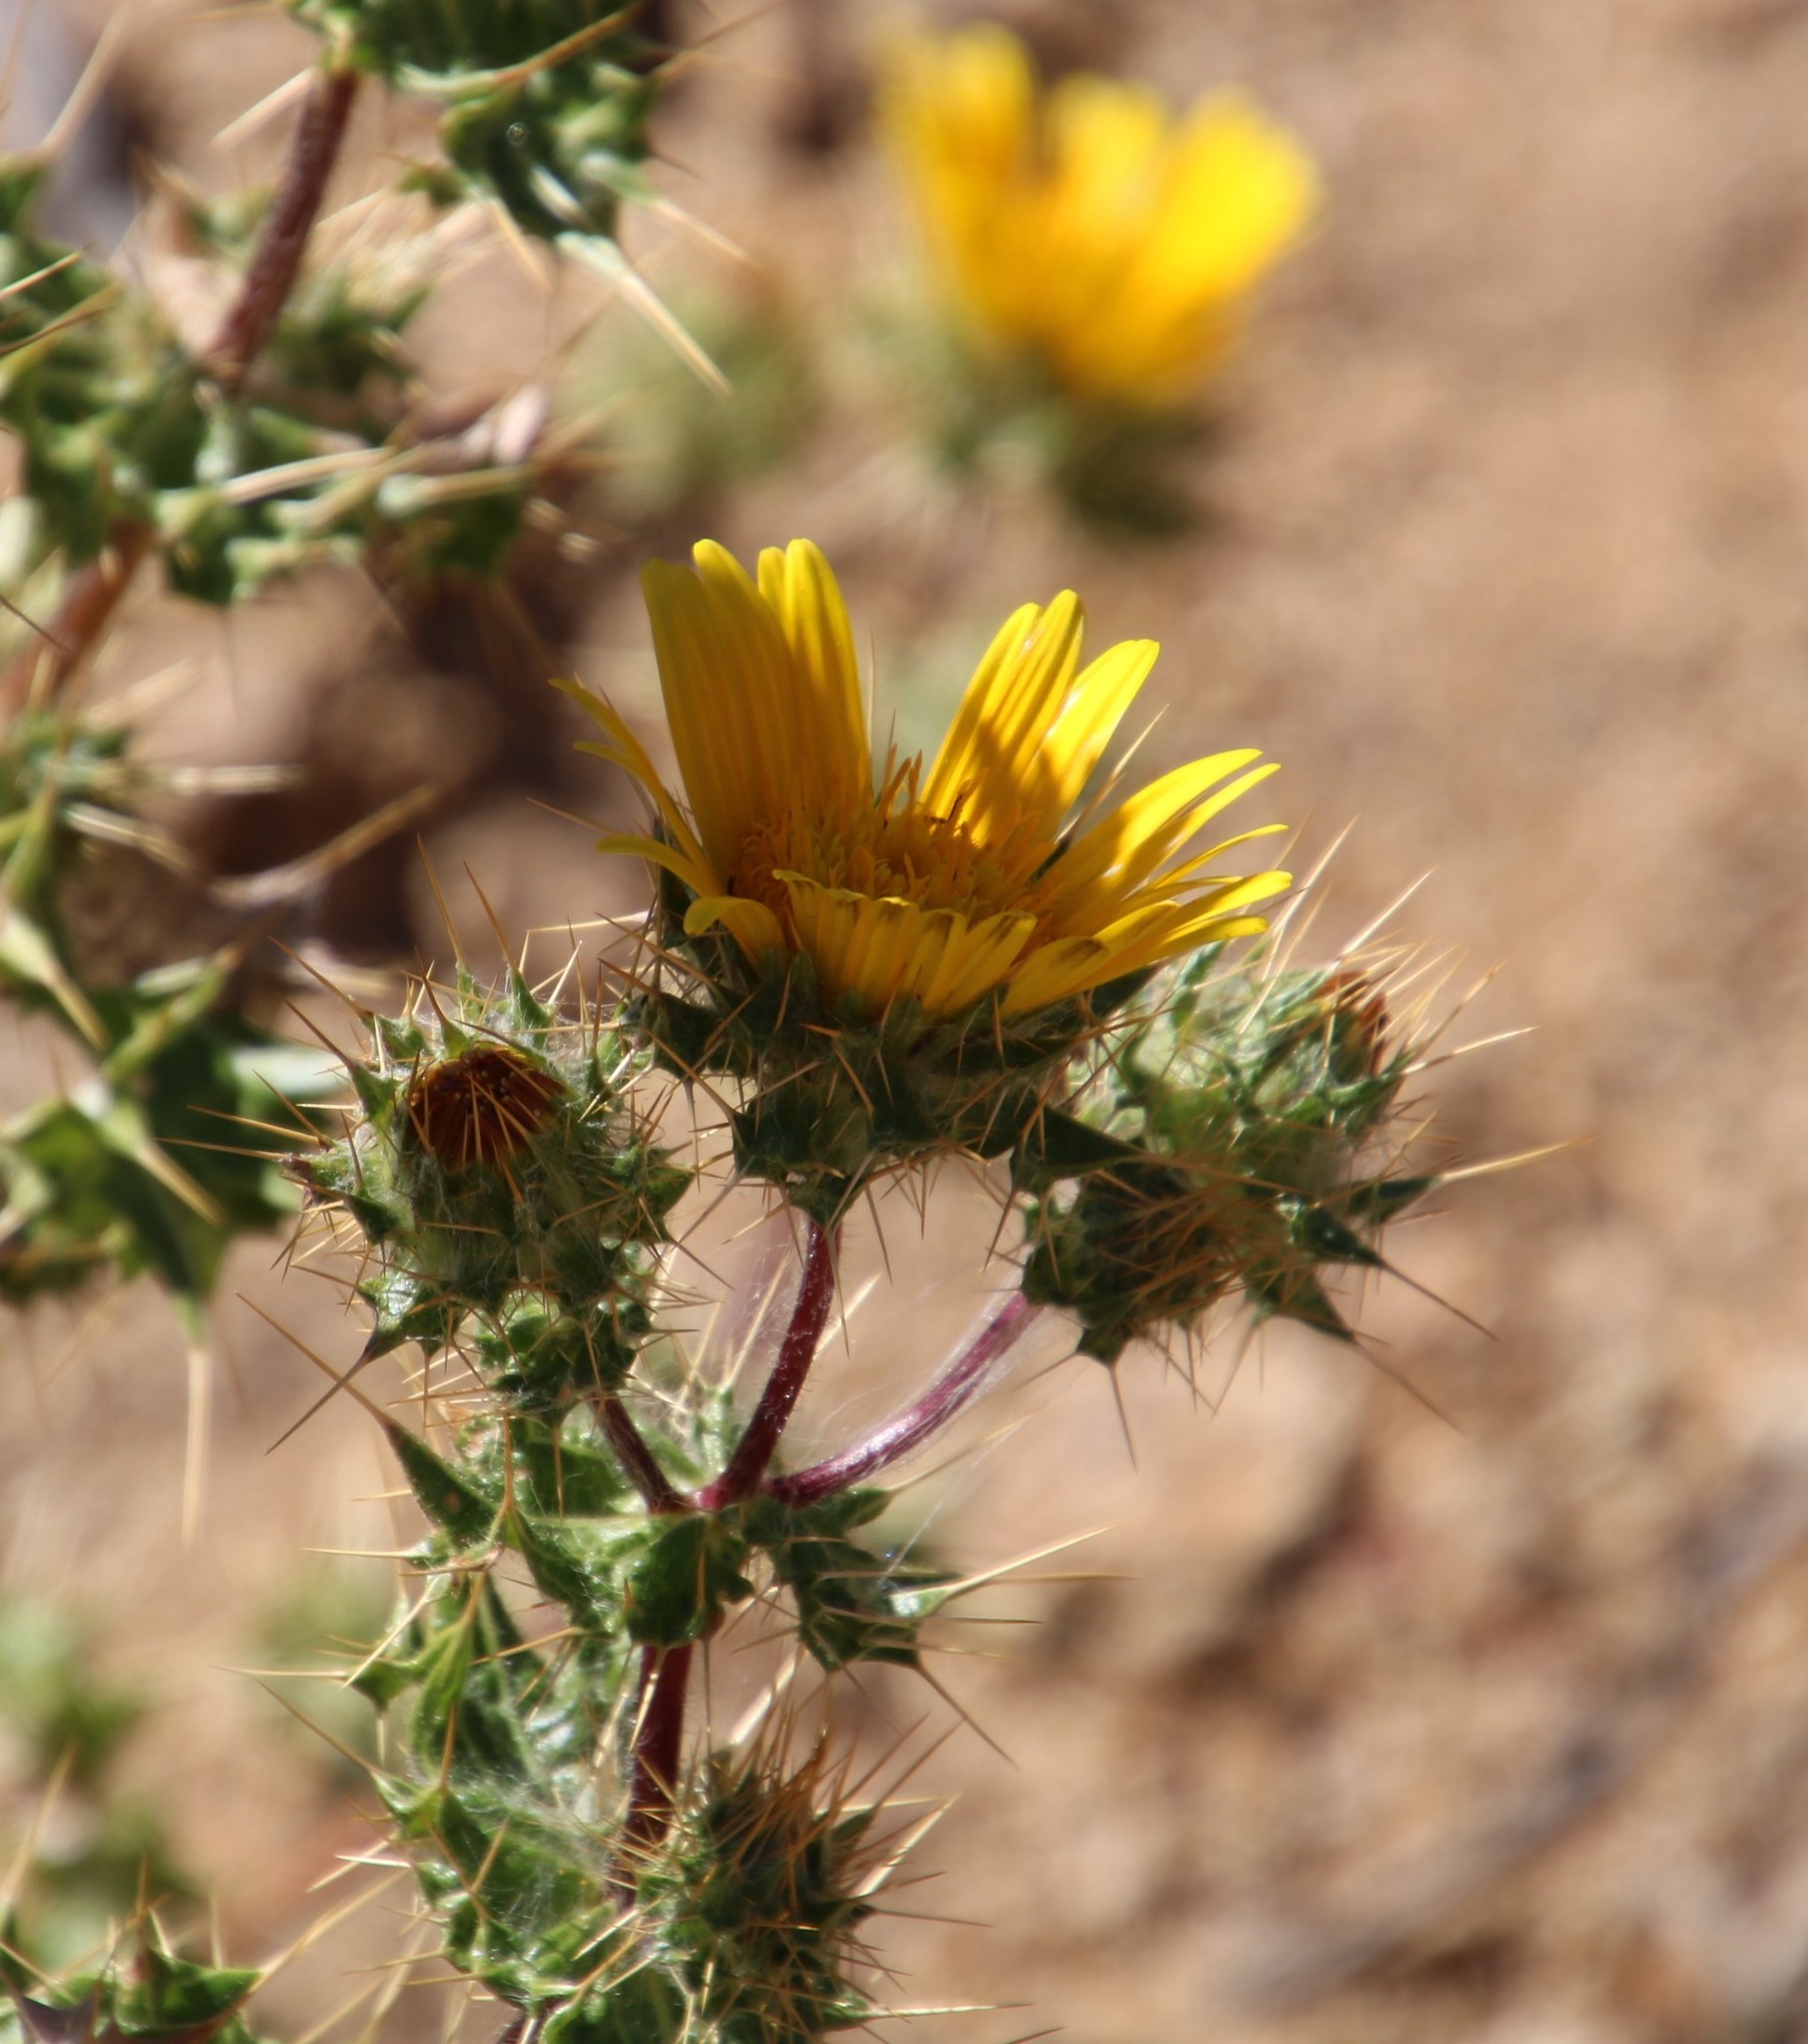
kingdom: Plantae
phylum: Tracheophyta
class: Magnoliopsida
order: Asterales
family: Asteraceae
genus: Berkheya
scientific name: Berkheya spinosissima
